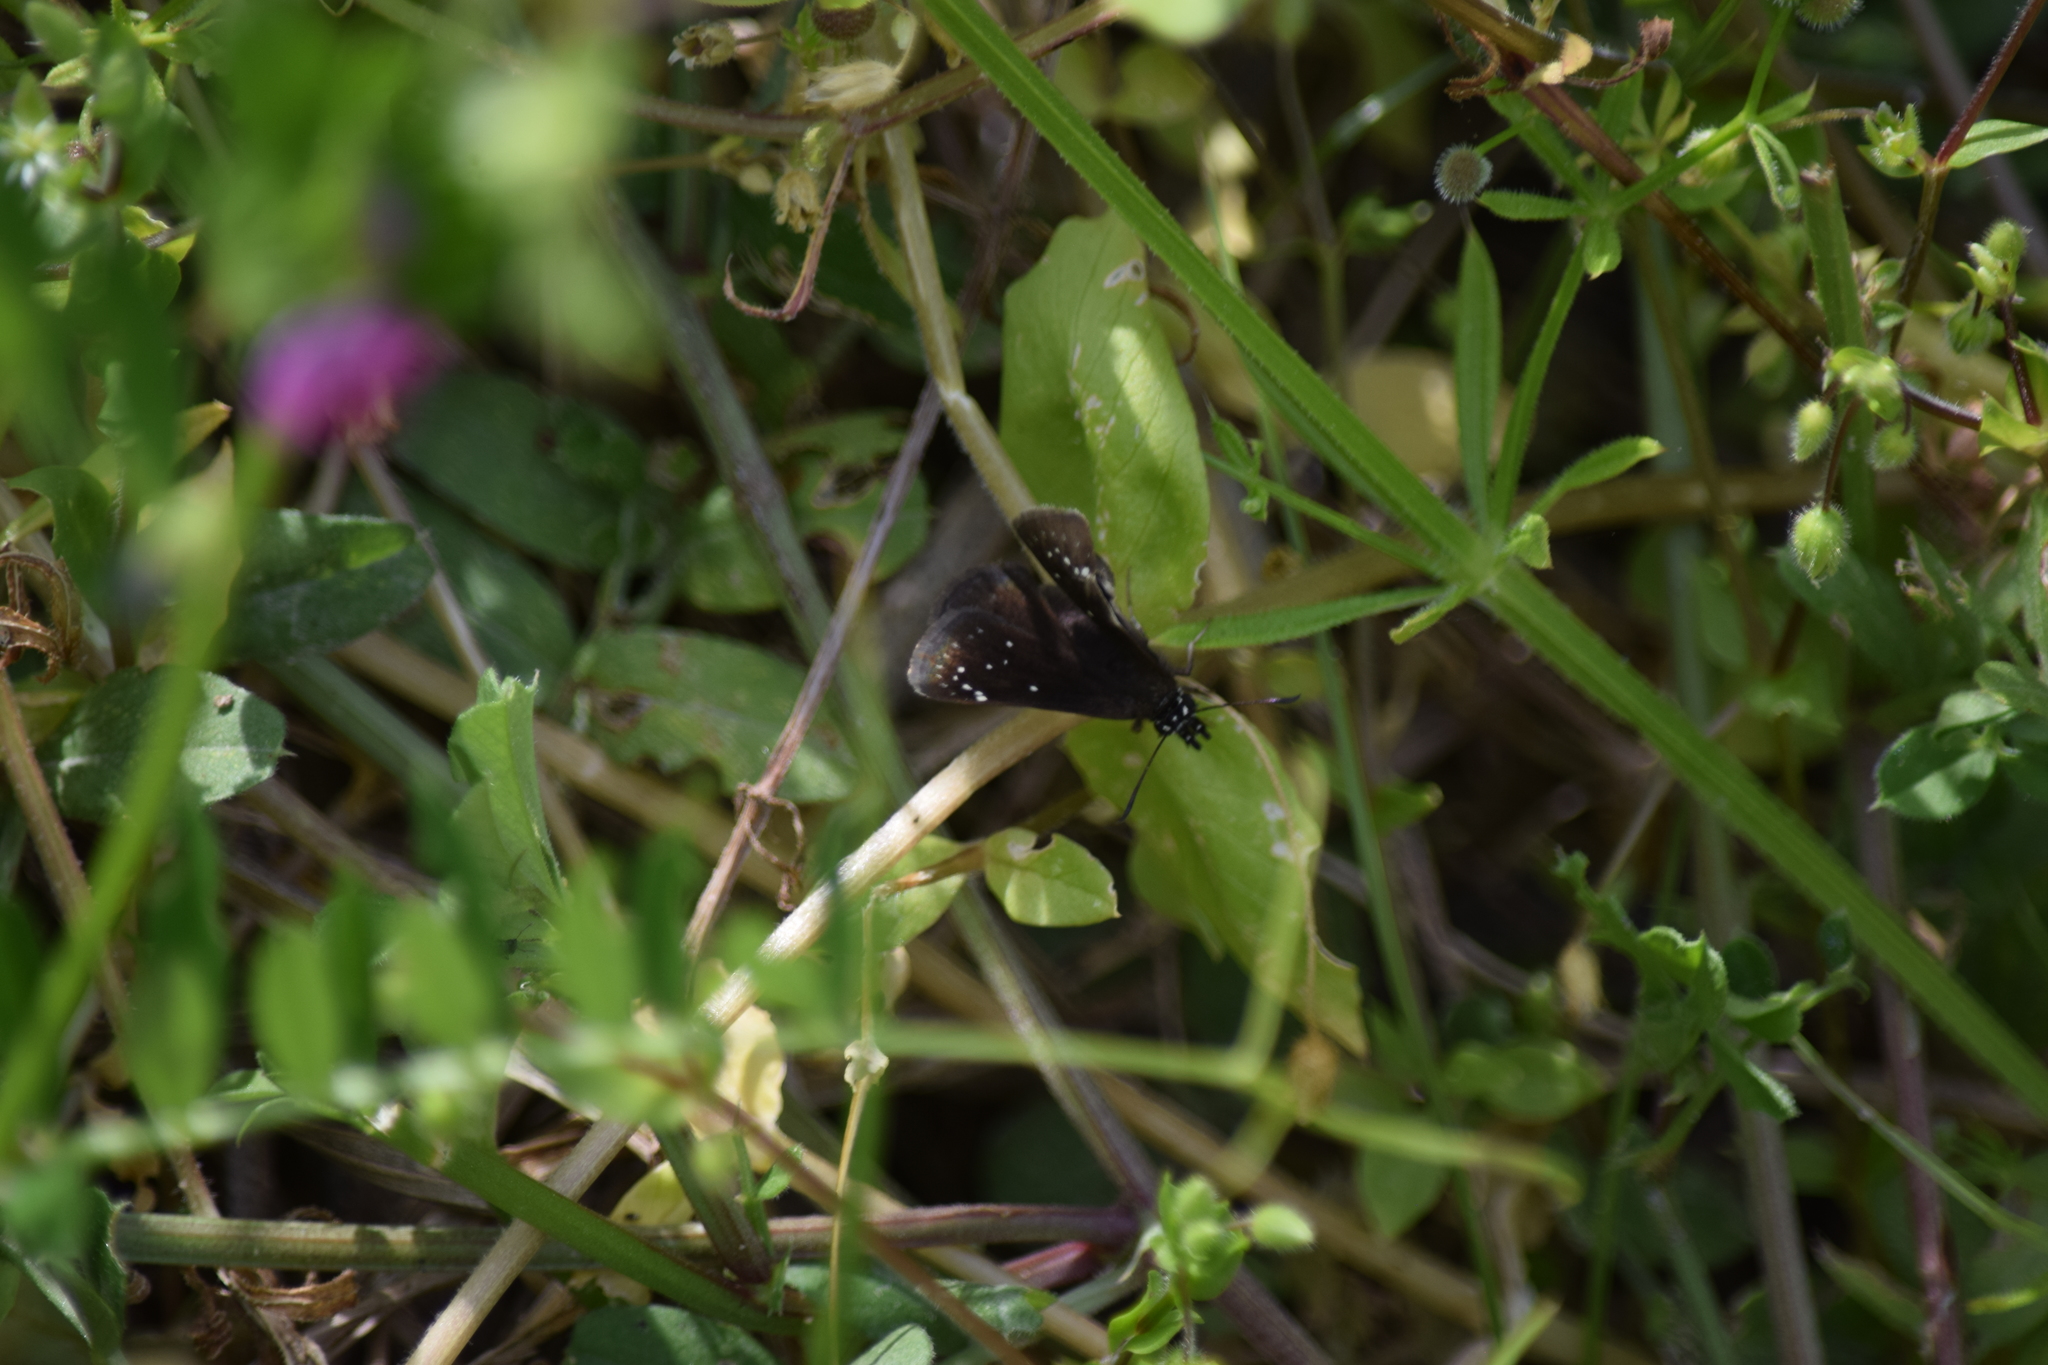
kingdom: Animalia
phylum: Arthropoda
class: Insecta
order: Lepidoptera
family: Hesperiidae
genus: Pholisora
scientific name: Pholisora catullus
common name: Common sootywing
